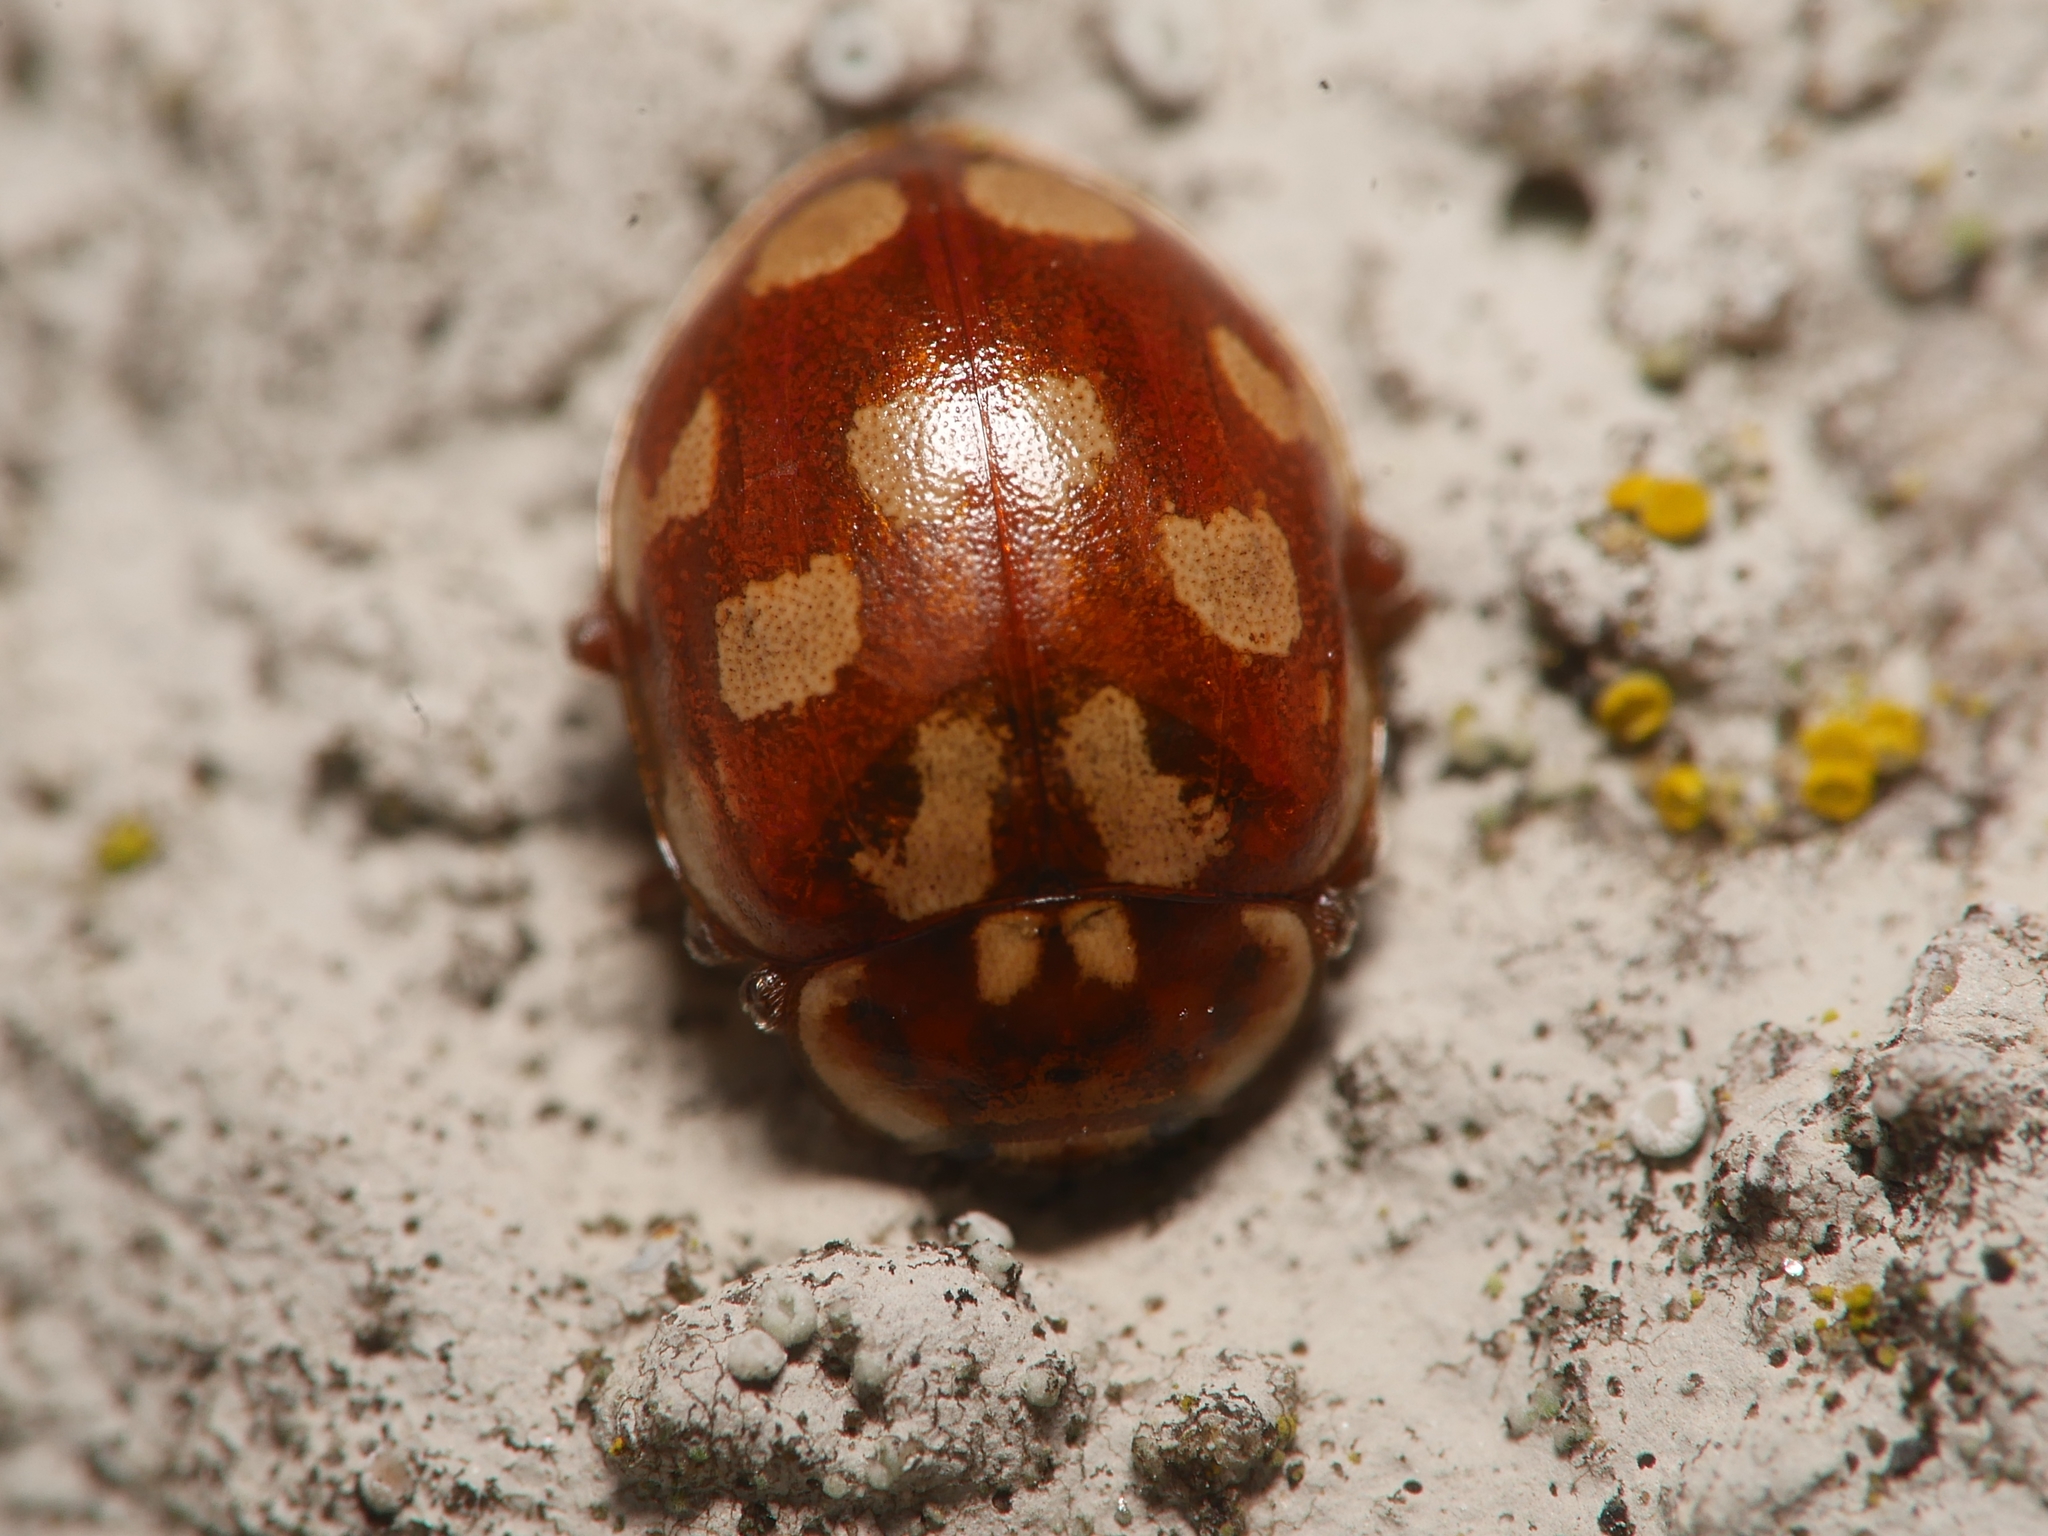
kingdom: Animalia
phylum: Arthropoda
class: Insecta
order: Coleoptera
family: Coccinellidae
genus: Myrrha
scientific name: Myrrha octodecimguttata
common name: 18-spot ladybird
